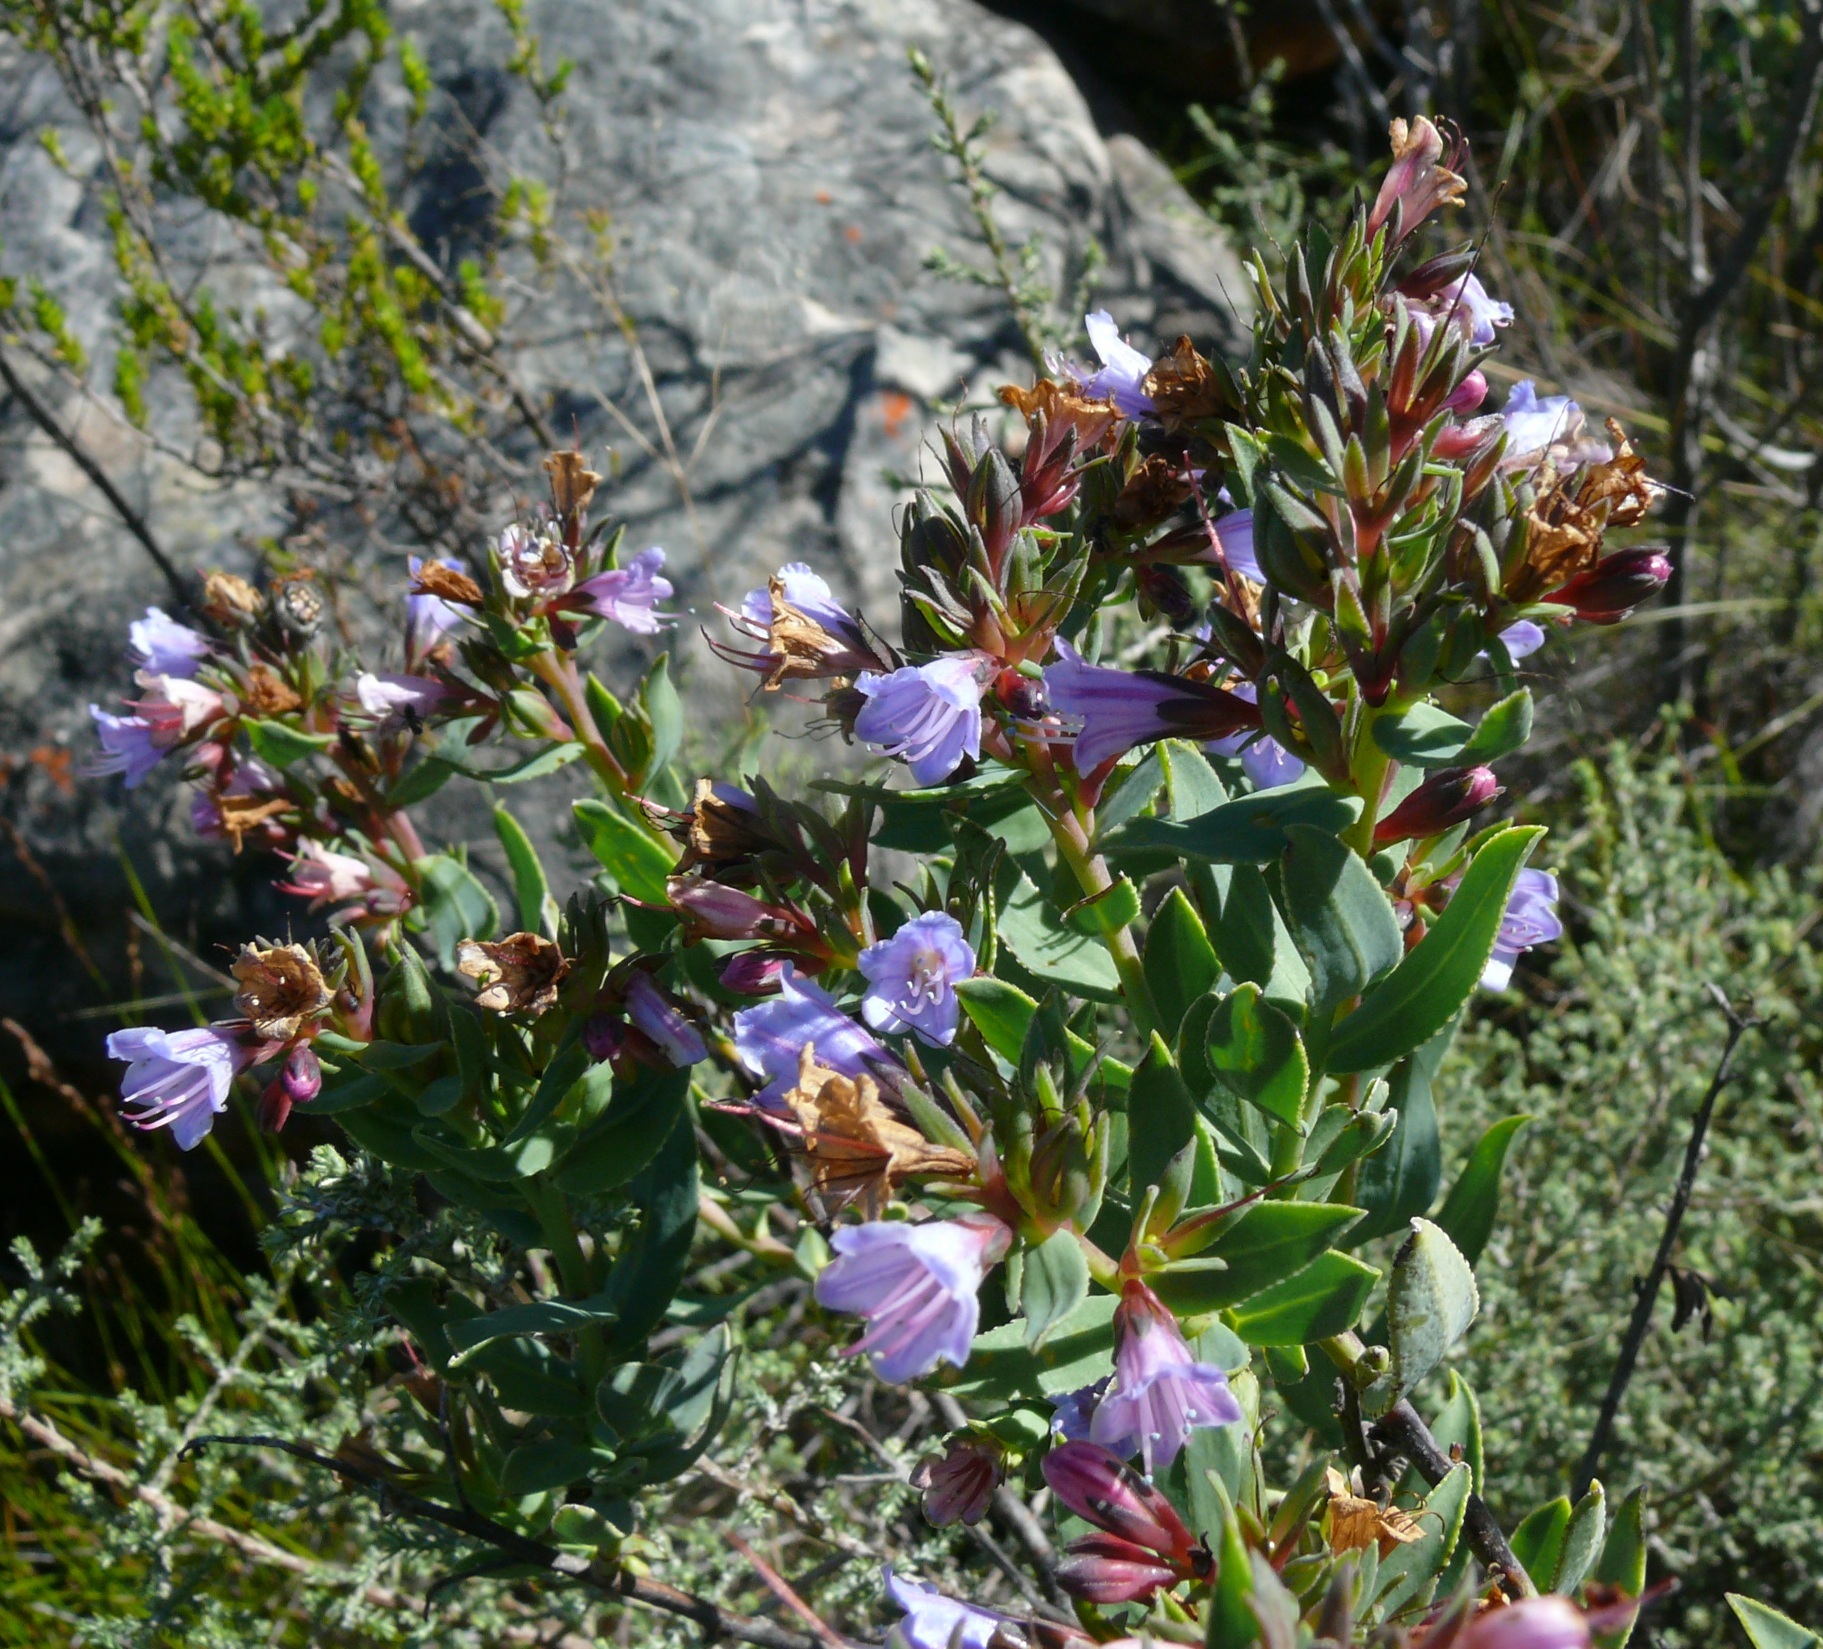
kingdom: Plantae
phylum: Tracheophyta
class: Magnoliopsida
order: Boraginales
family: Boraginaceae
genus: Lobostemon
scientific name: Lobostemon laevigatus
